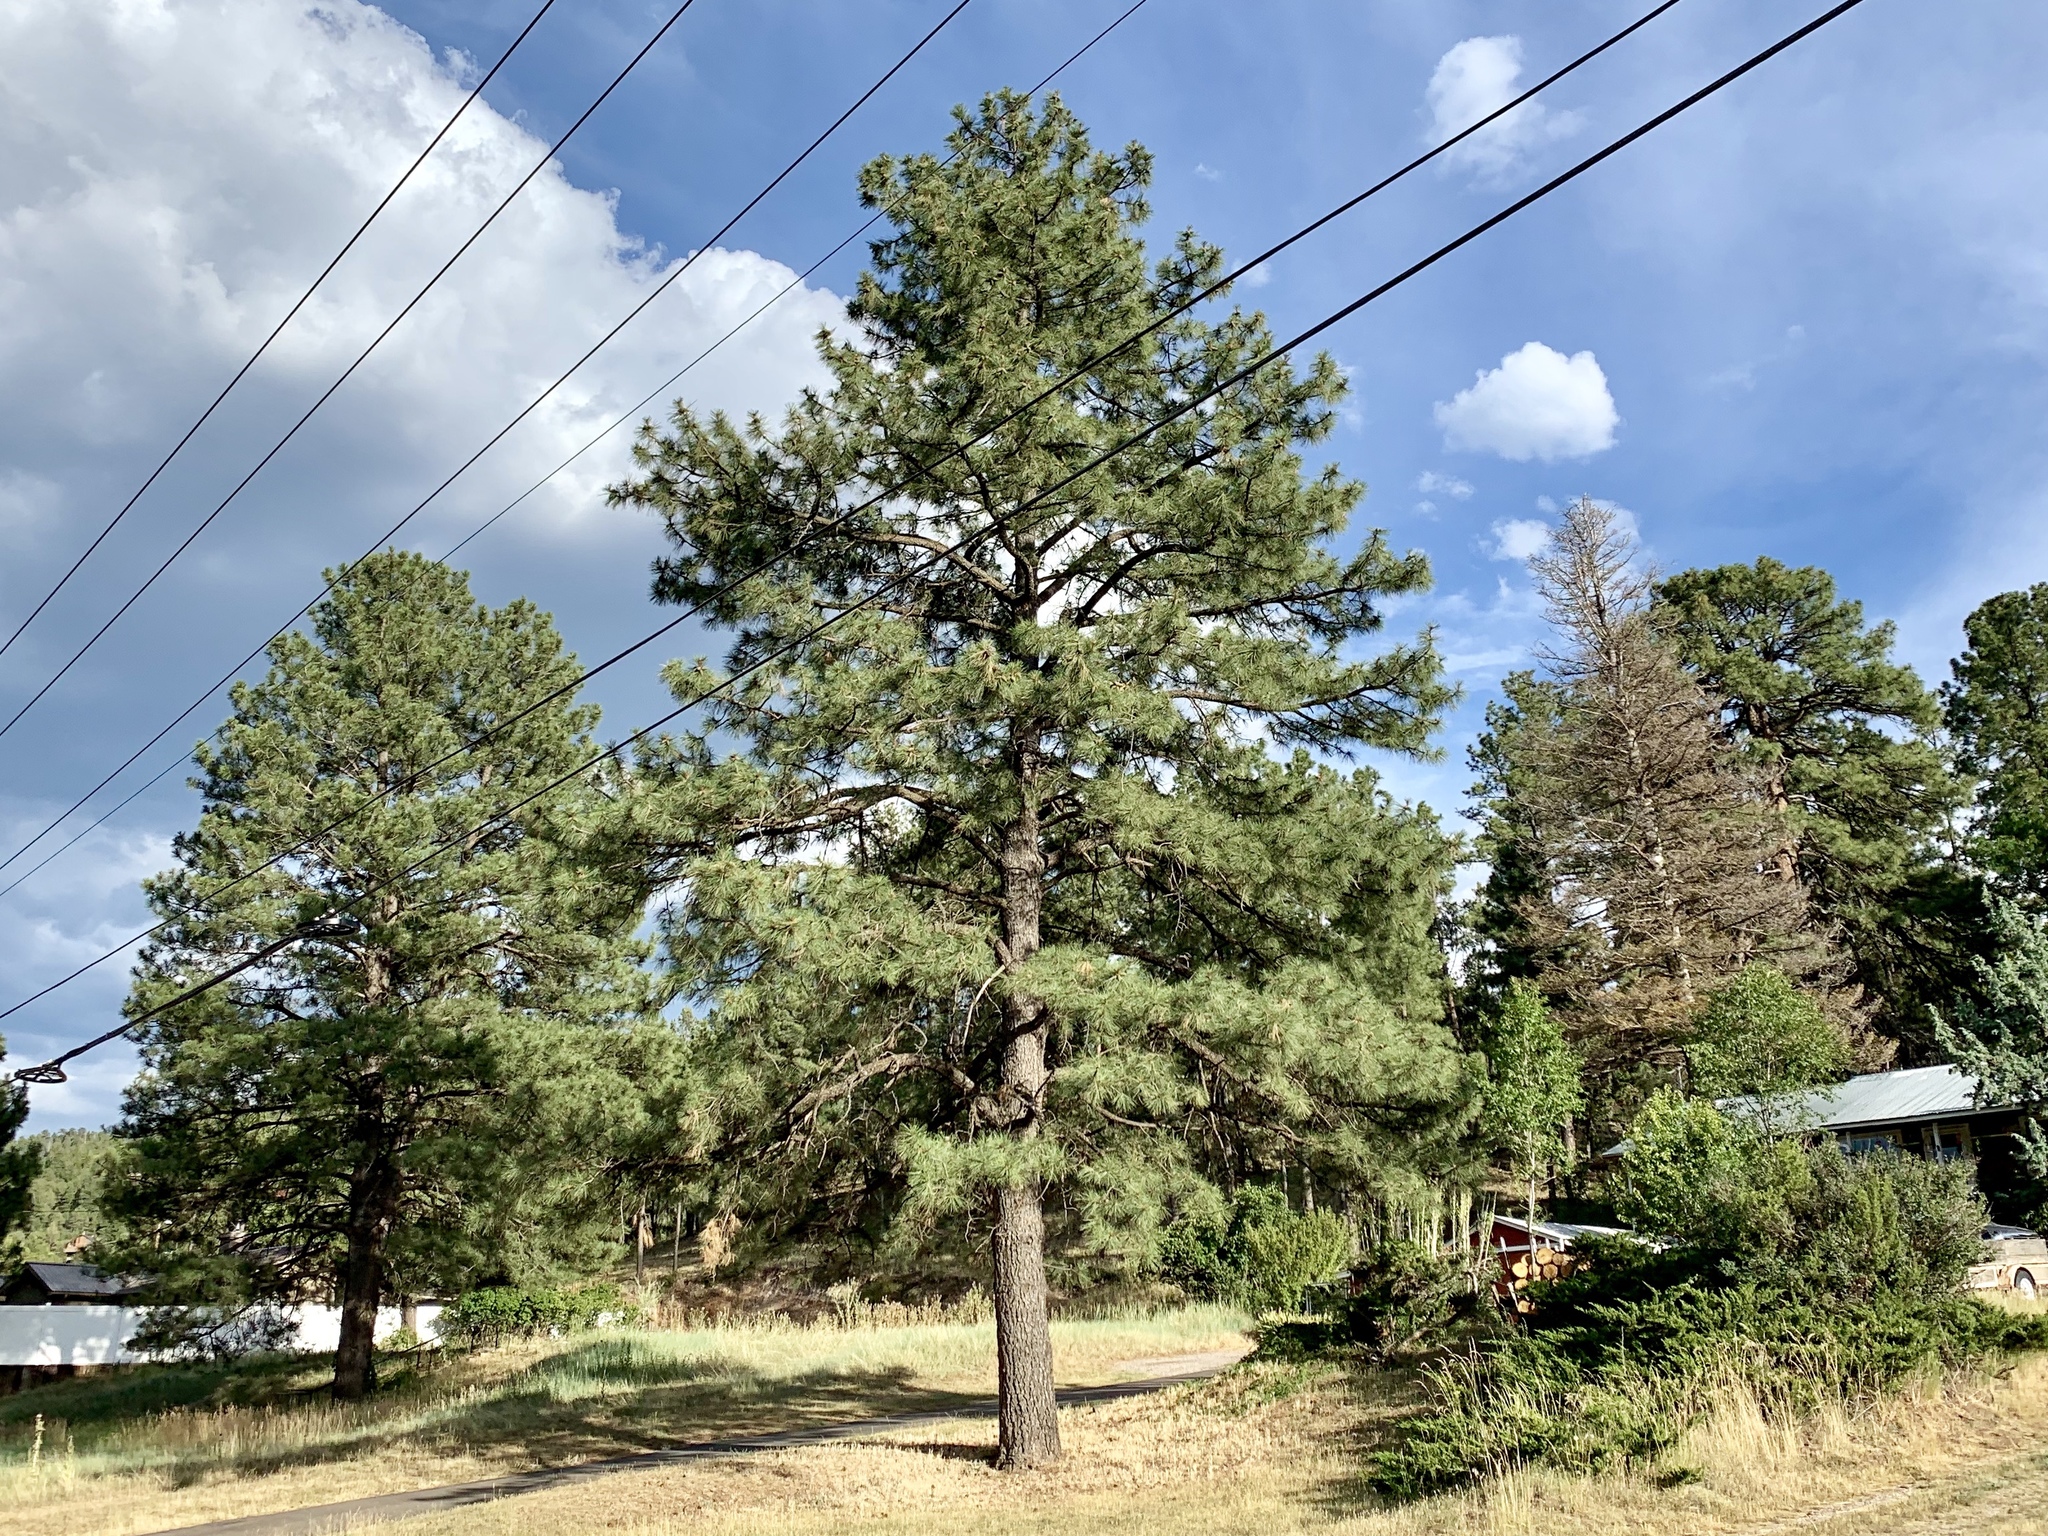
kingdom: Plantae
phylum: Tracheophyta
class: Pinopsida
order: Pinales
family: Pinaceae
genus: Pinus
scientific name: Pinus ponderosa
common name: Western yellow-pine
